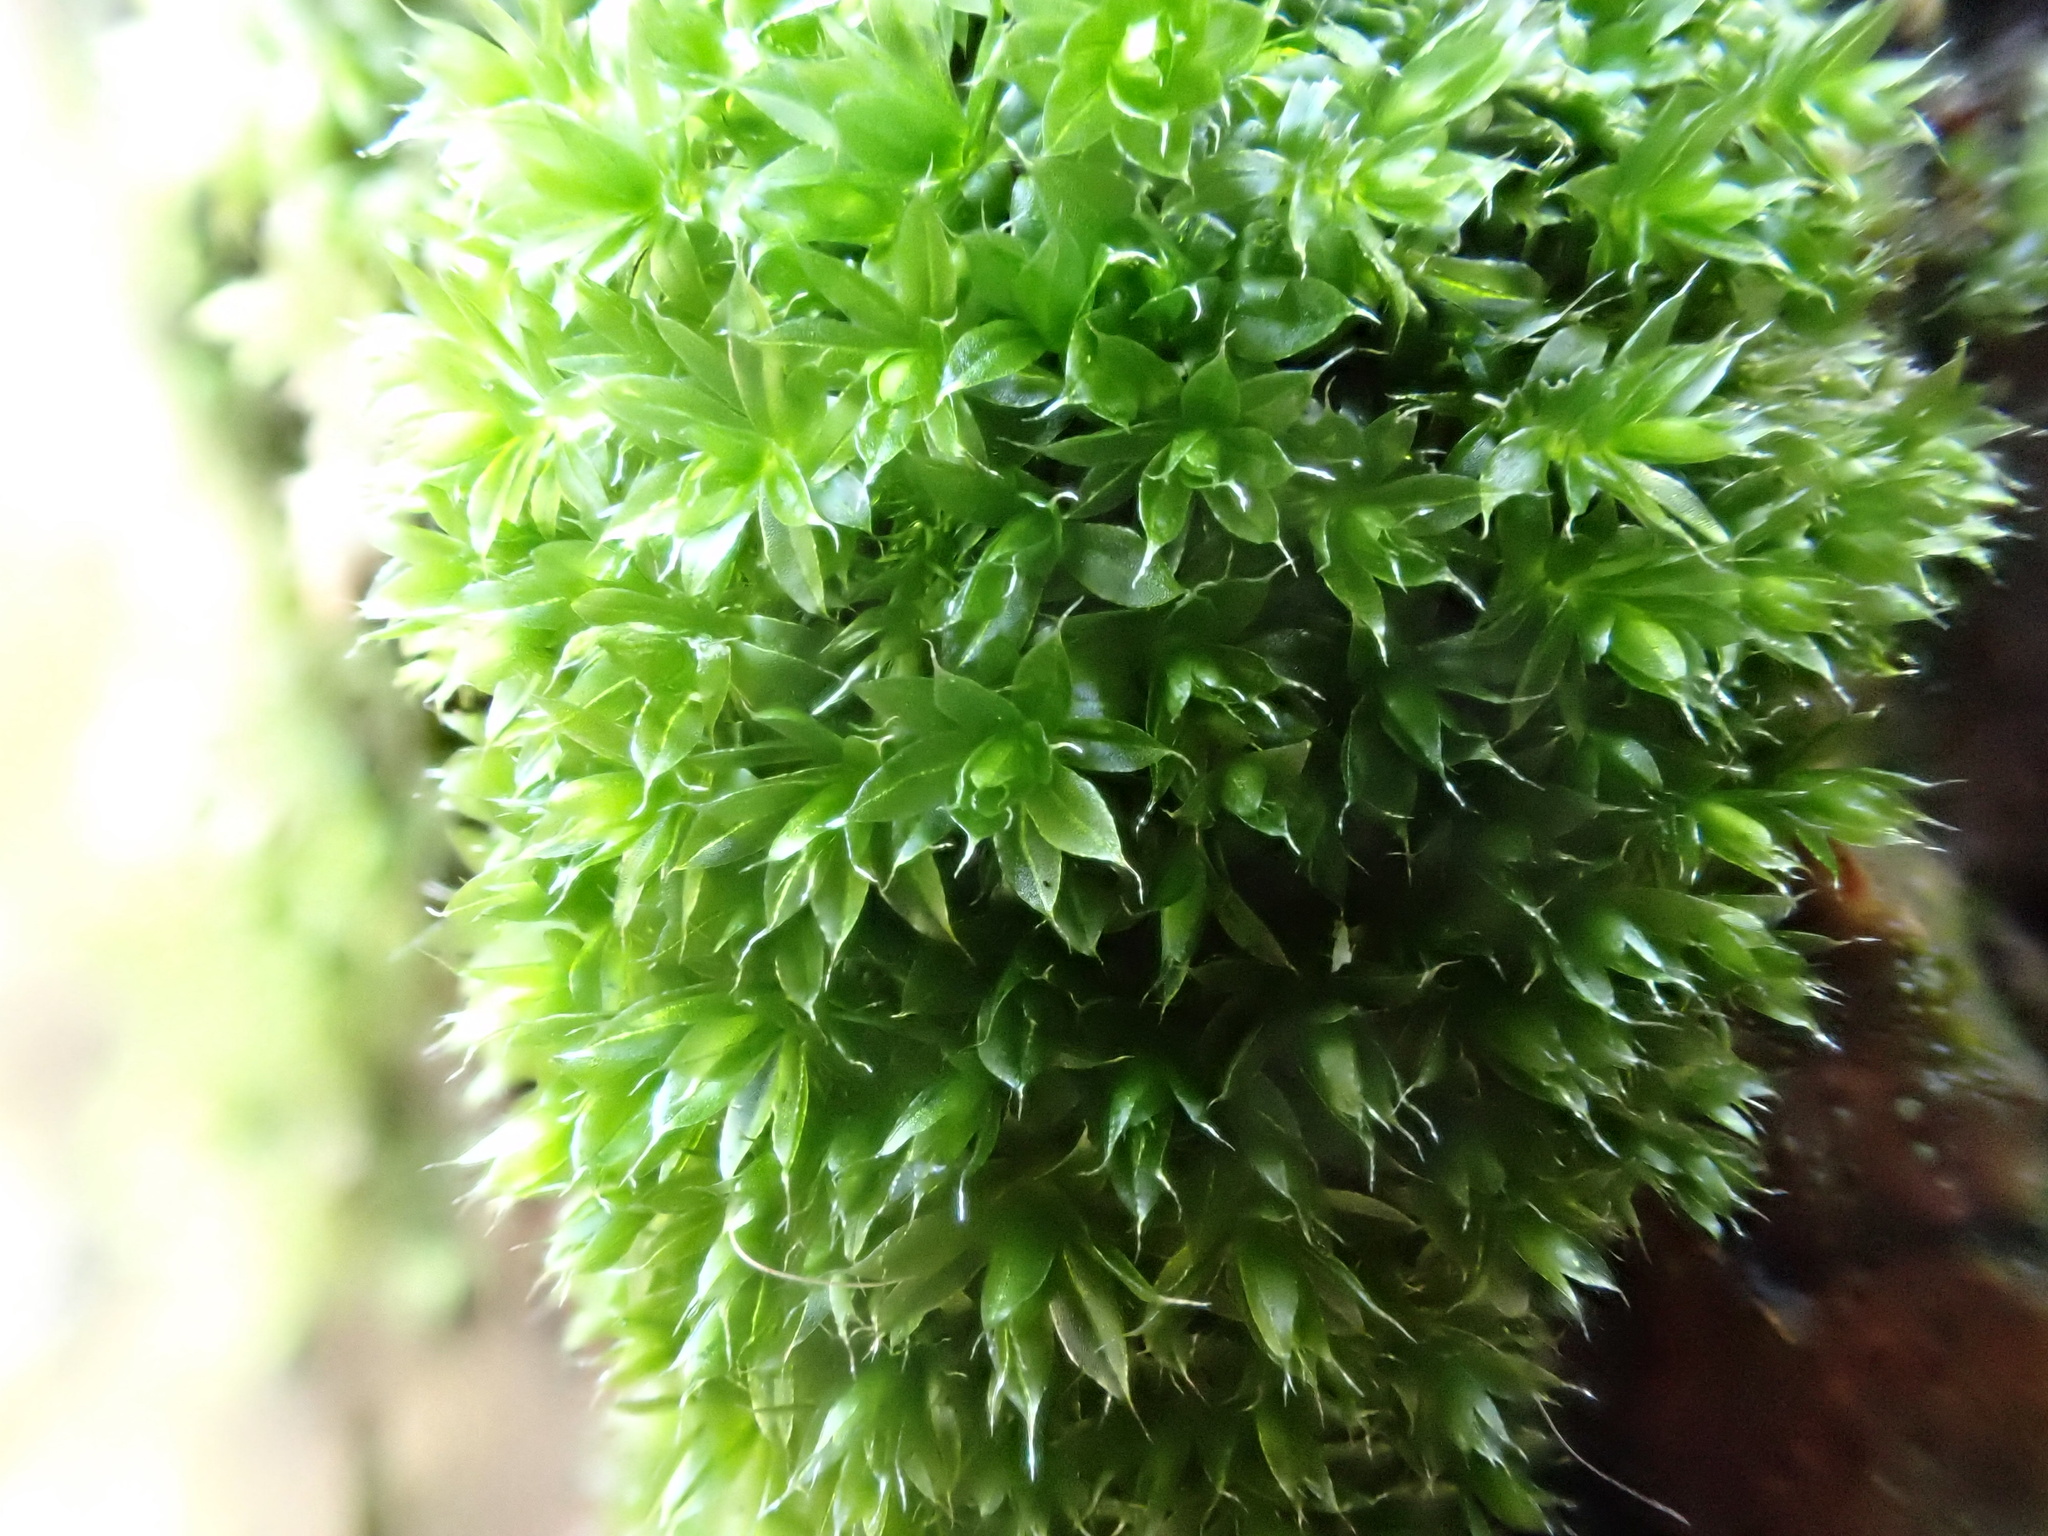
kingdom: Plantae
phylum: Bryophyta
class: Bryopsida
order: Bryales
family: Bryaceae
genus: Rosulabryum
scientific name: Rosulabryum capillare
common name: Capillary thread-moss
